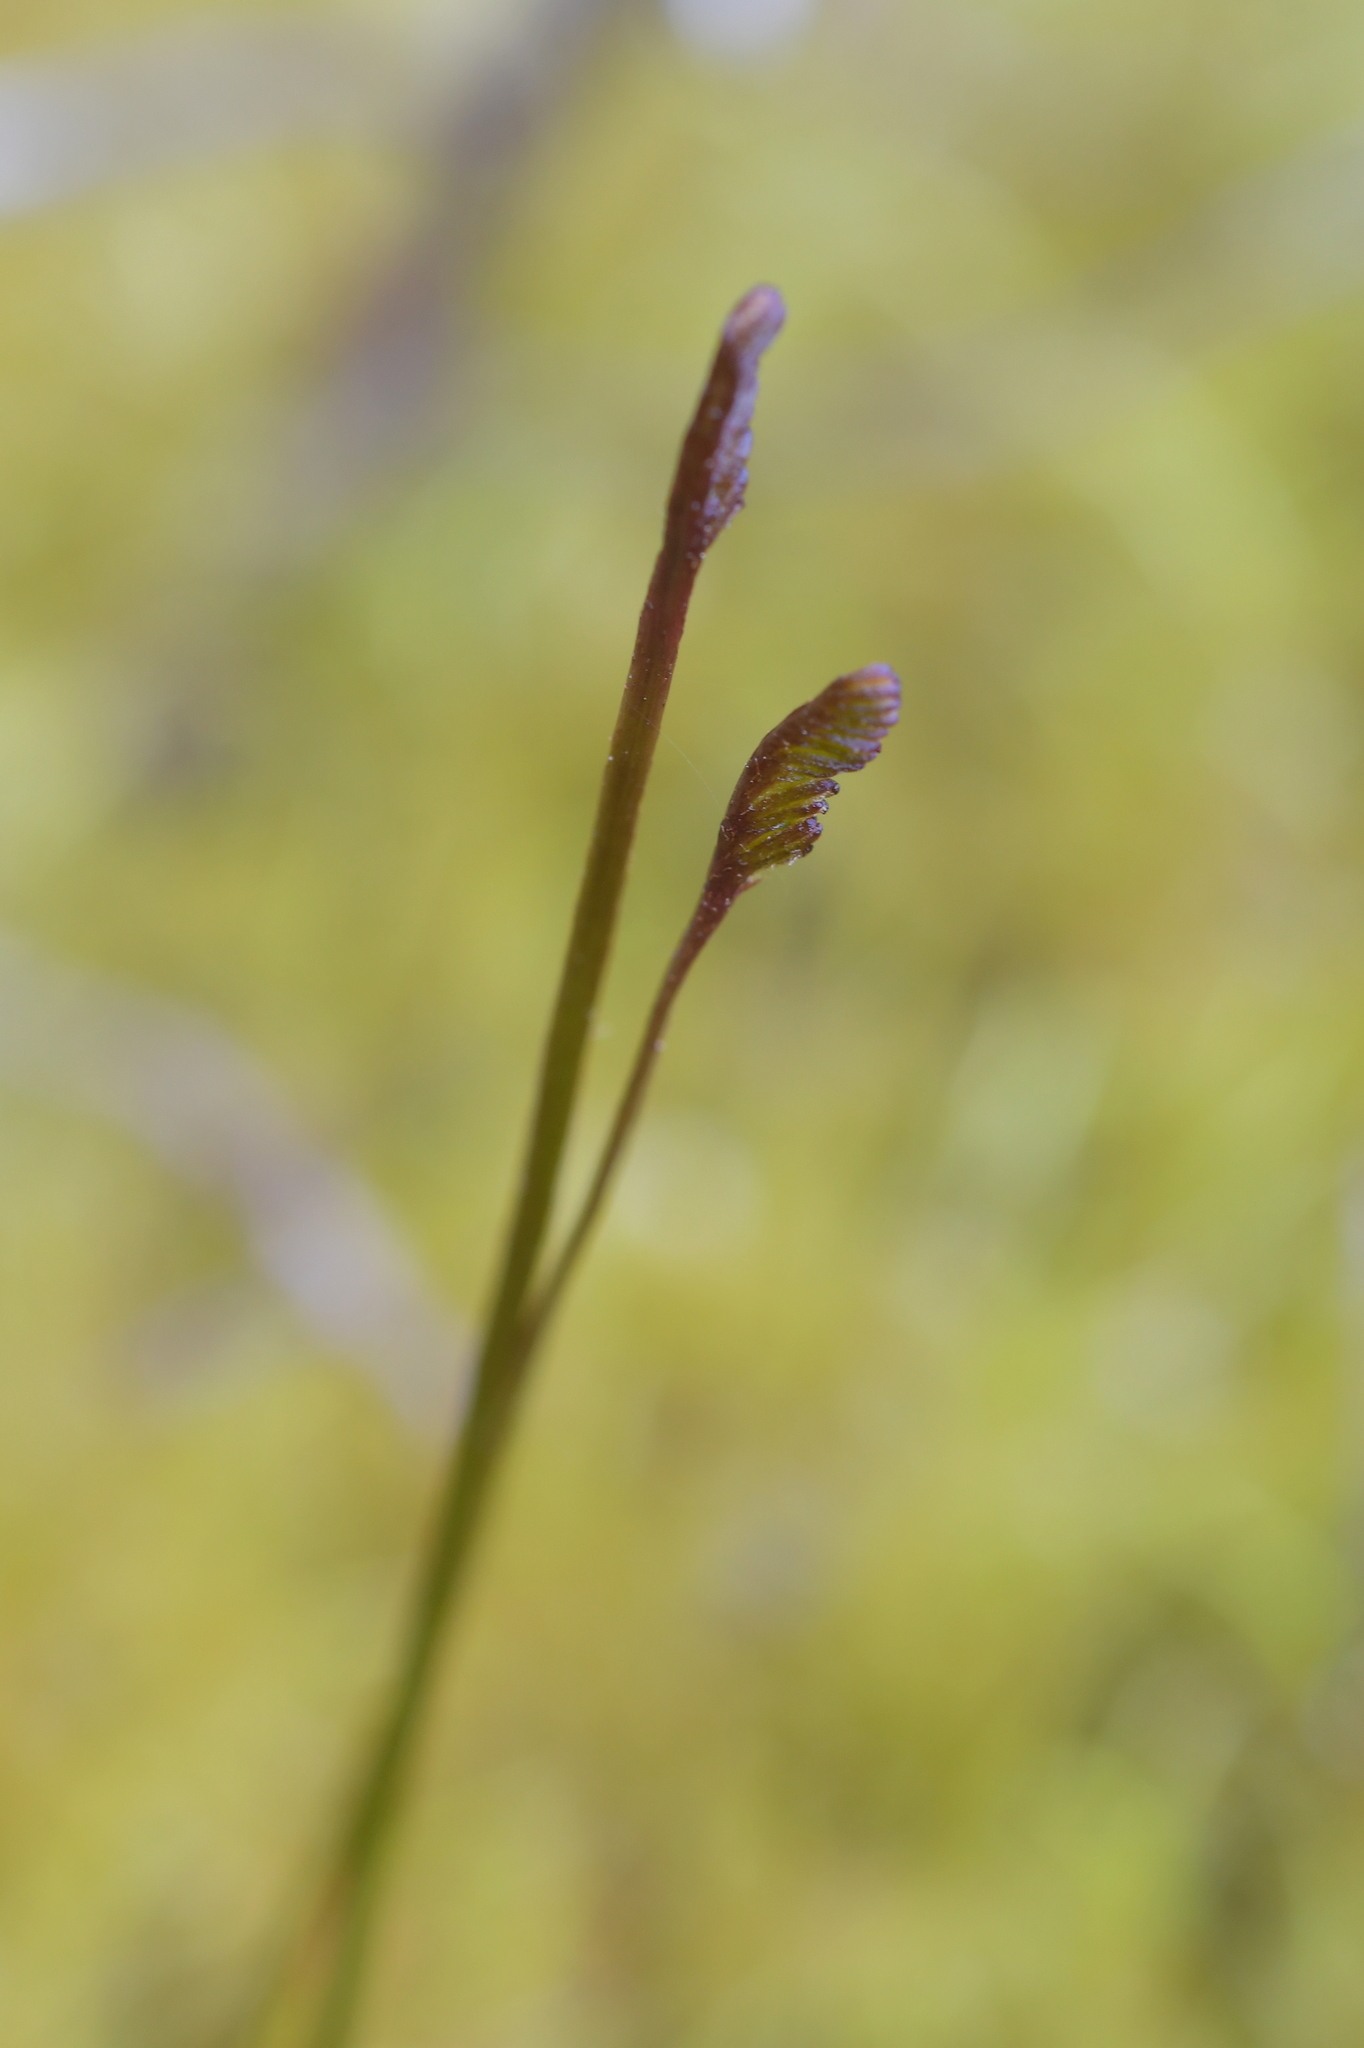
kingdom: Plantae
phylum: Tracheophyta
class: Polypodiopsida
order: Schizaeales
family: Schizaeaceae
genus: Schizaea
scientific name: Schizaea bifida
